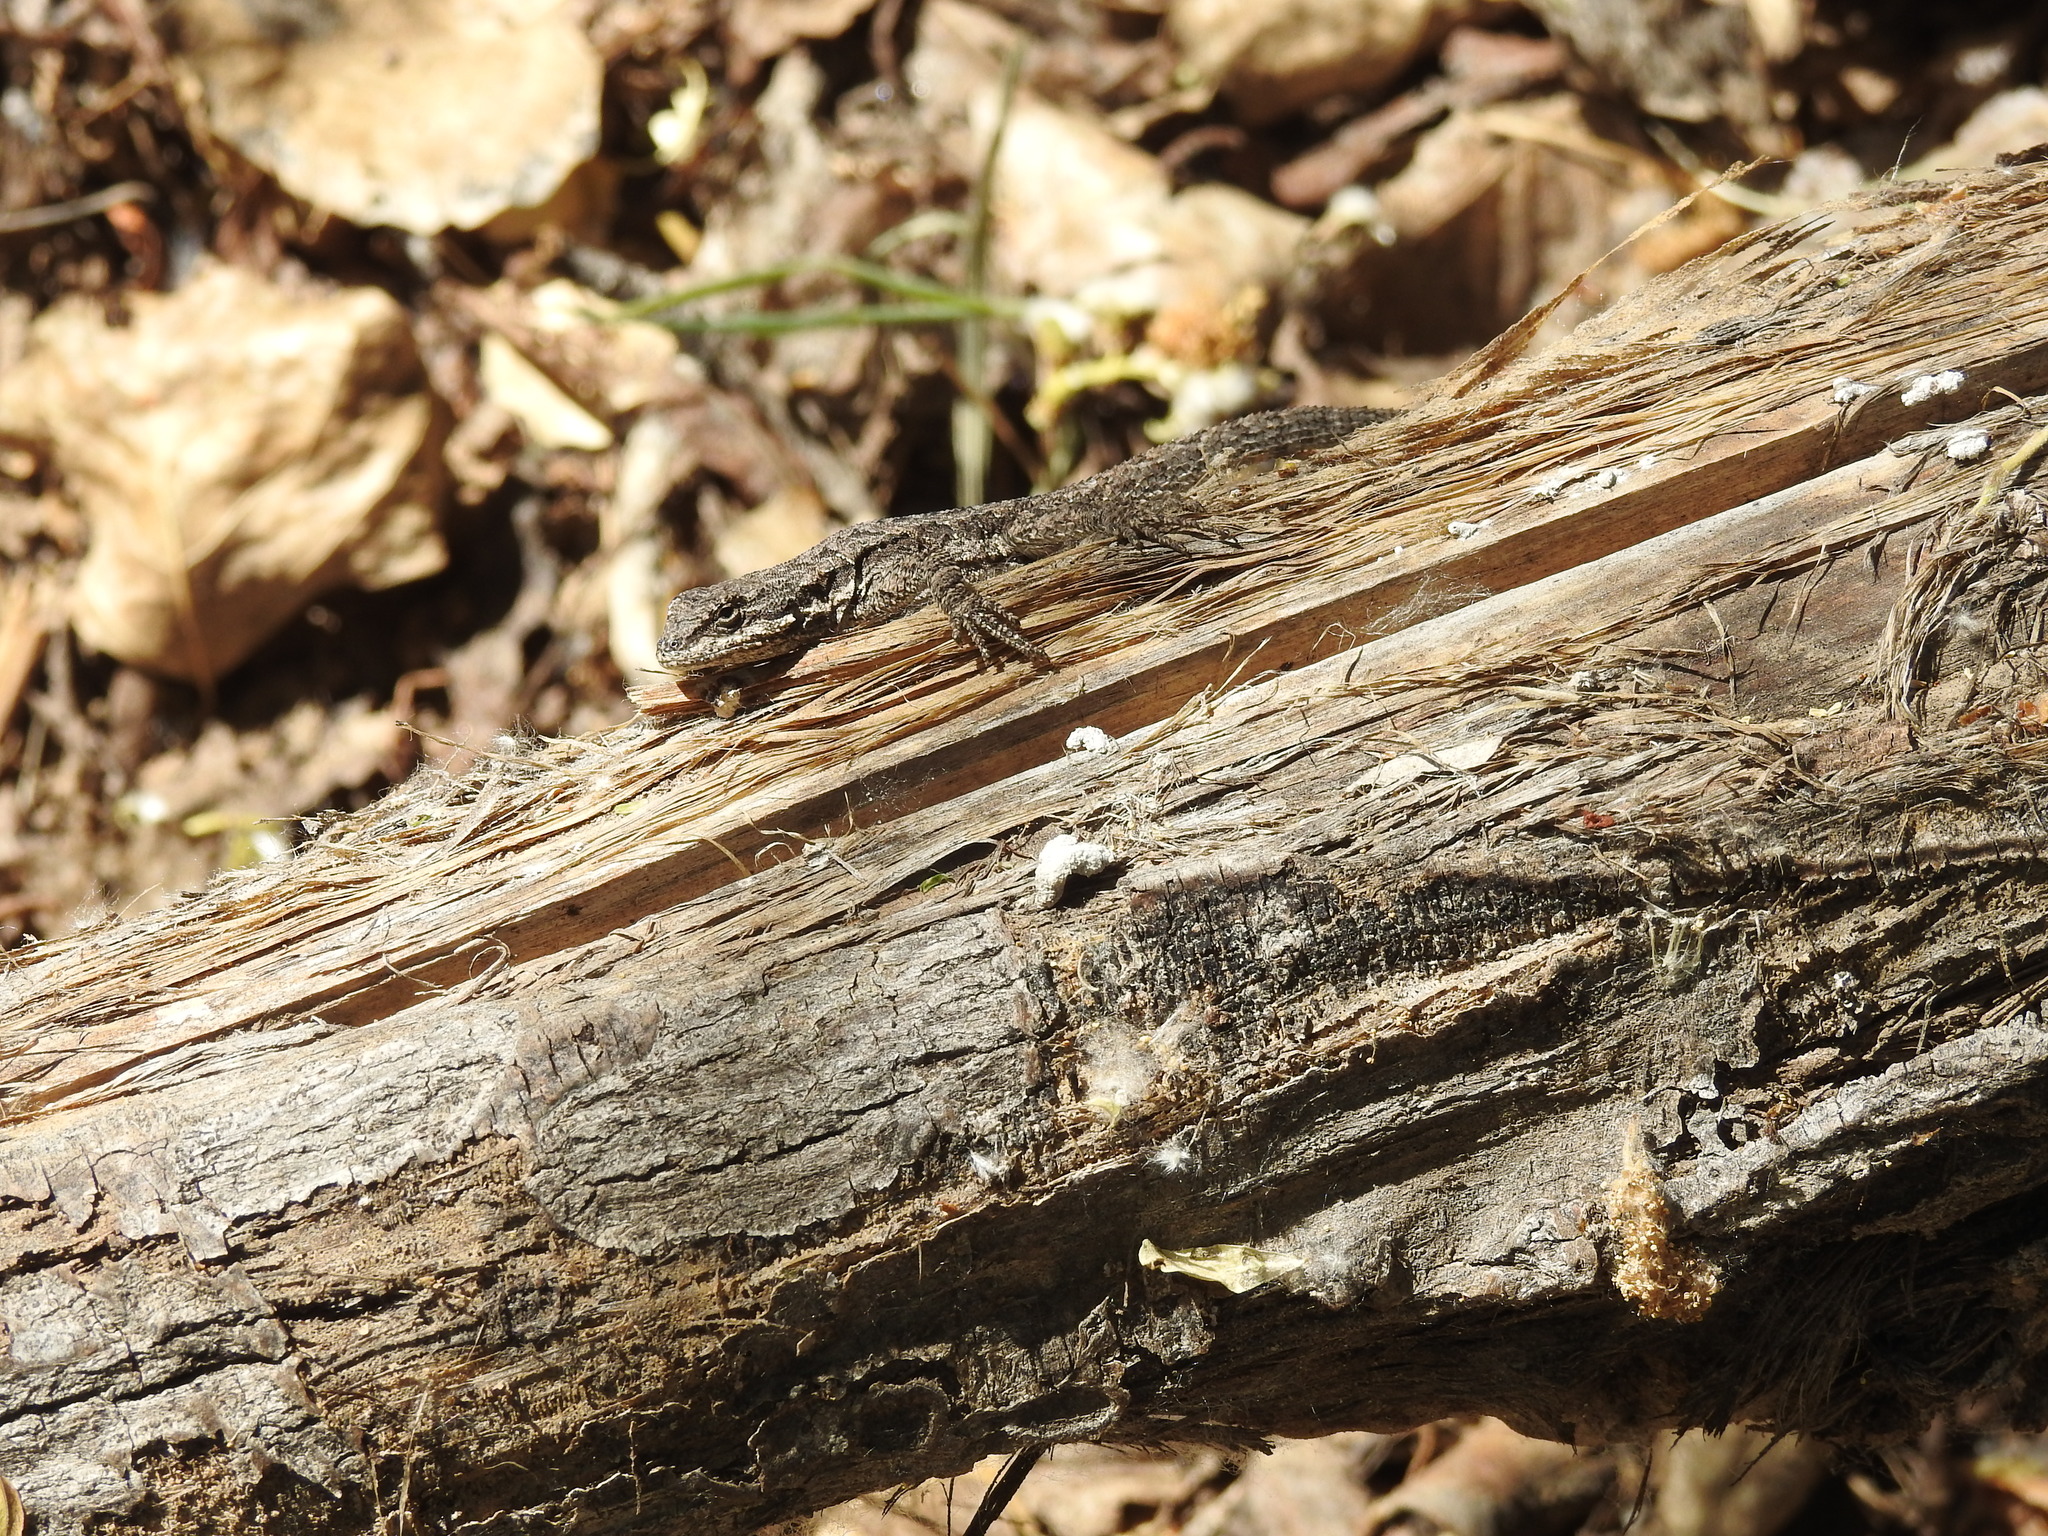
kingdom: Animalia
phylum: Chordata
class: Squamata
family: Phrynosomatidae
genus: Urosaurus
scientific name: Urosaurus ornatus
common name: Ornate tree lizard
